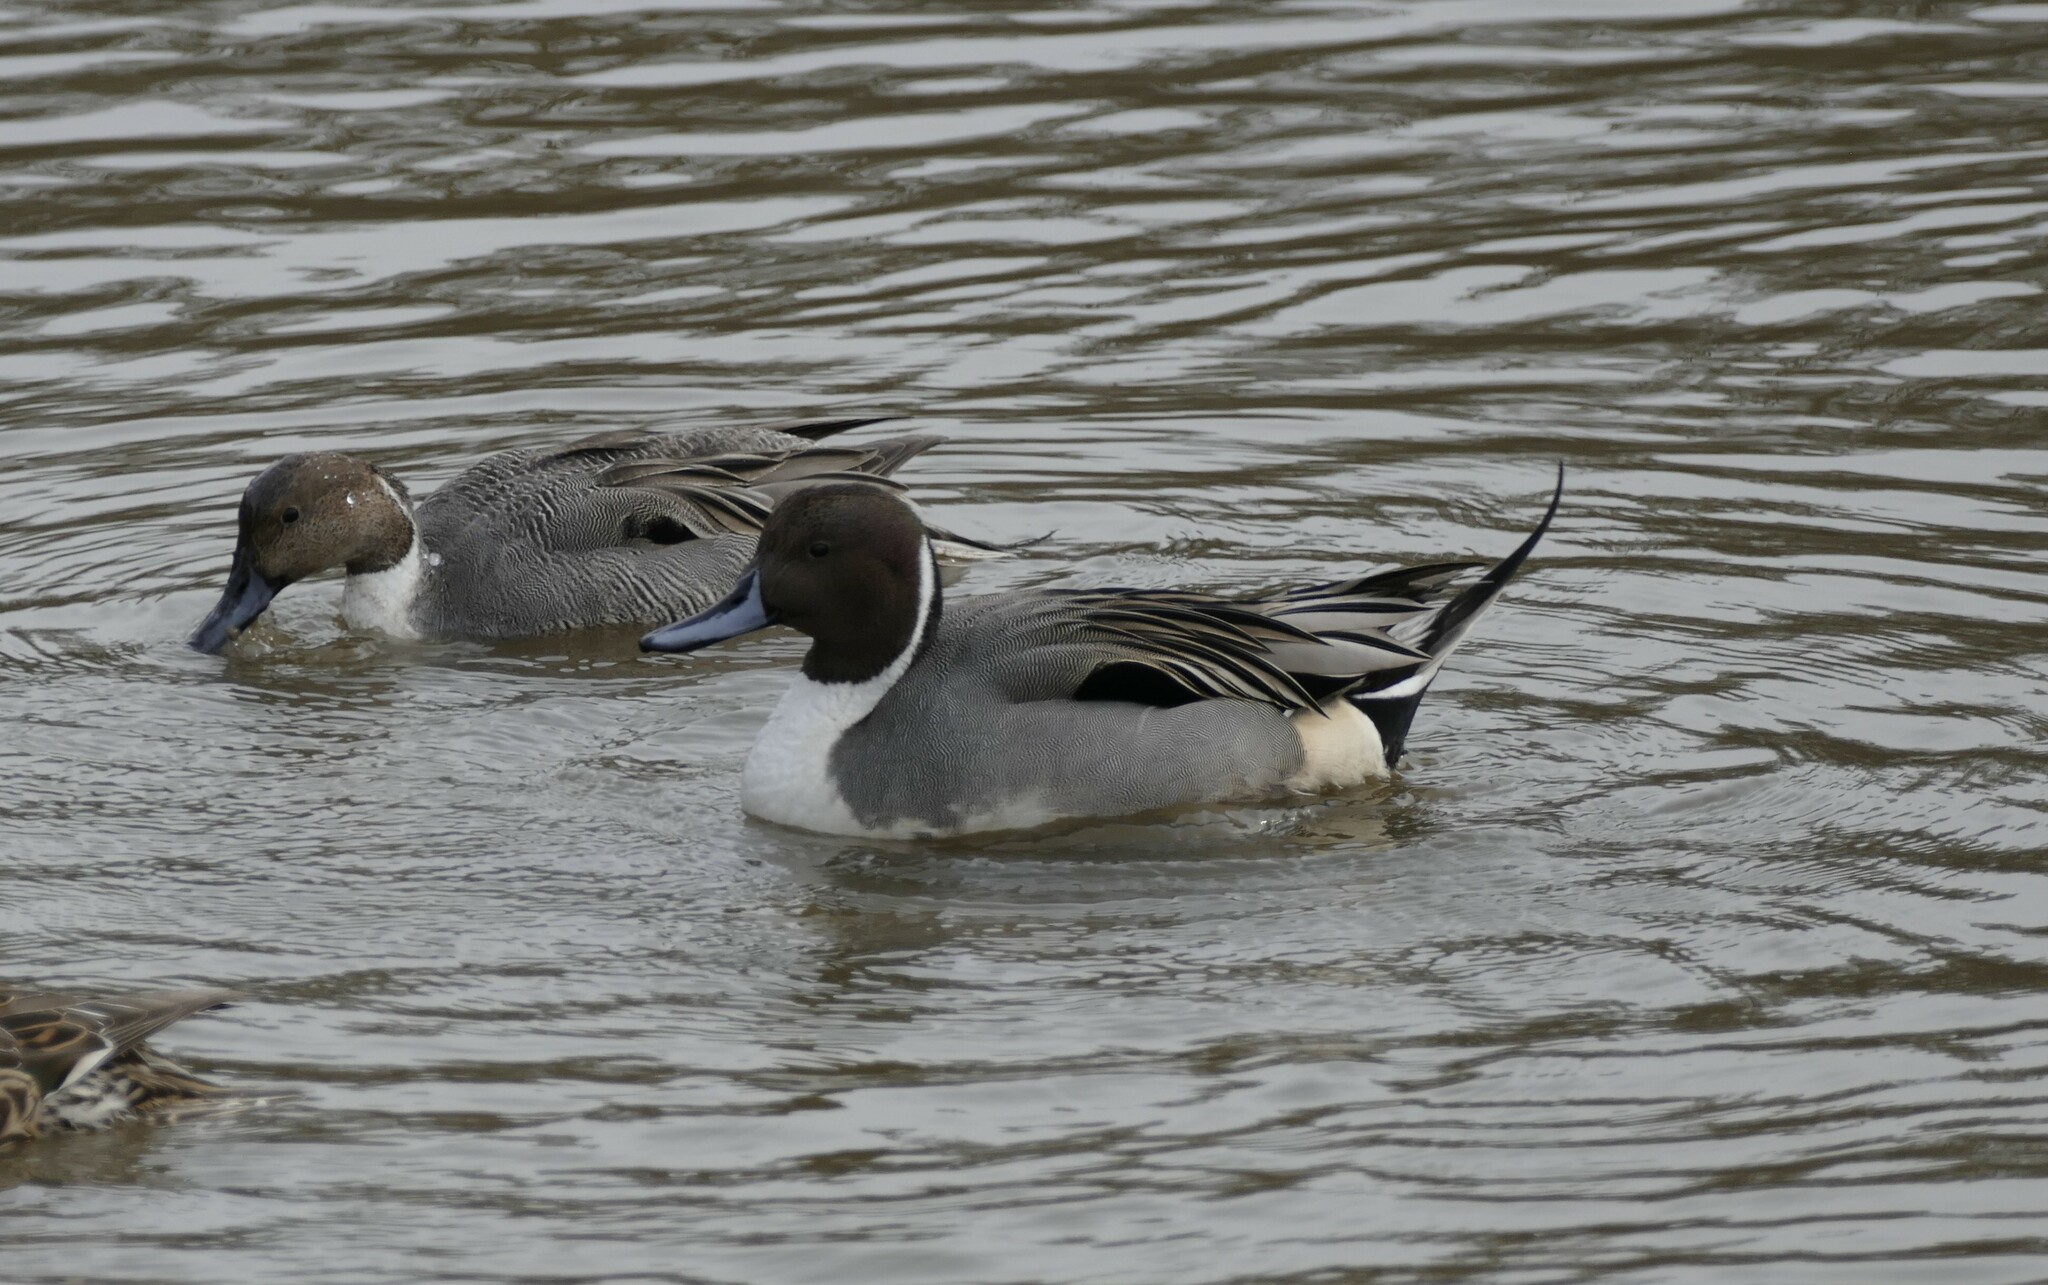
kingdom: Animalia
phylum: Chordata
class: Aves
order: Anseriformes
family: Anatidae
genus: Anas
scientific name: Anas acuta
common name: Northern pintail
